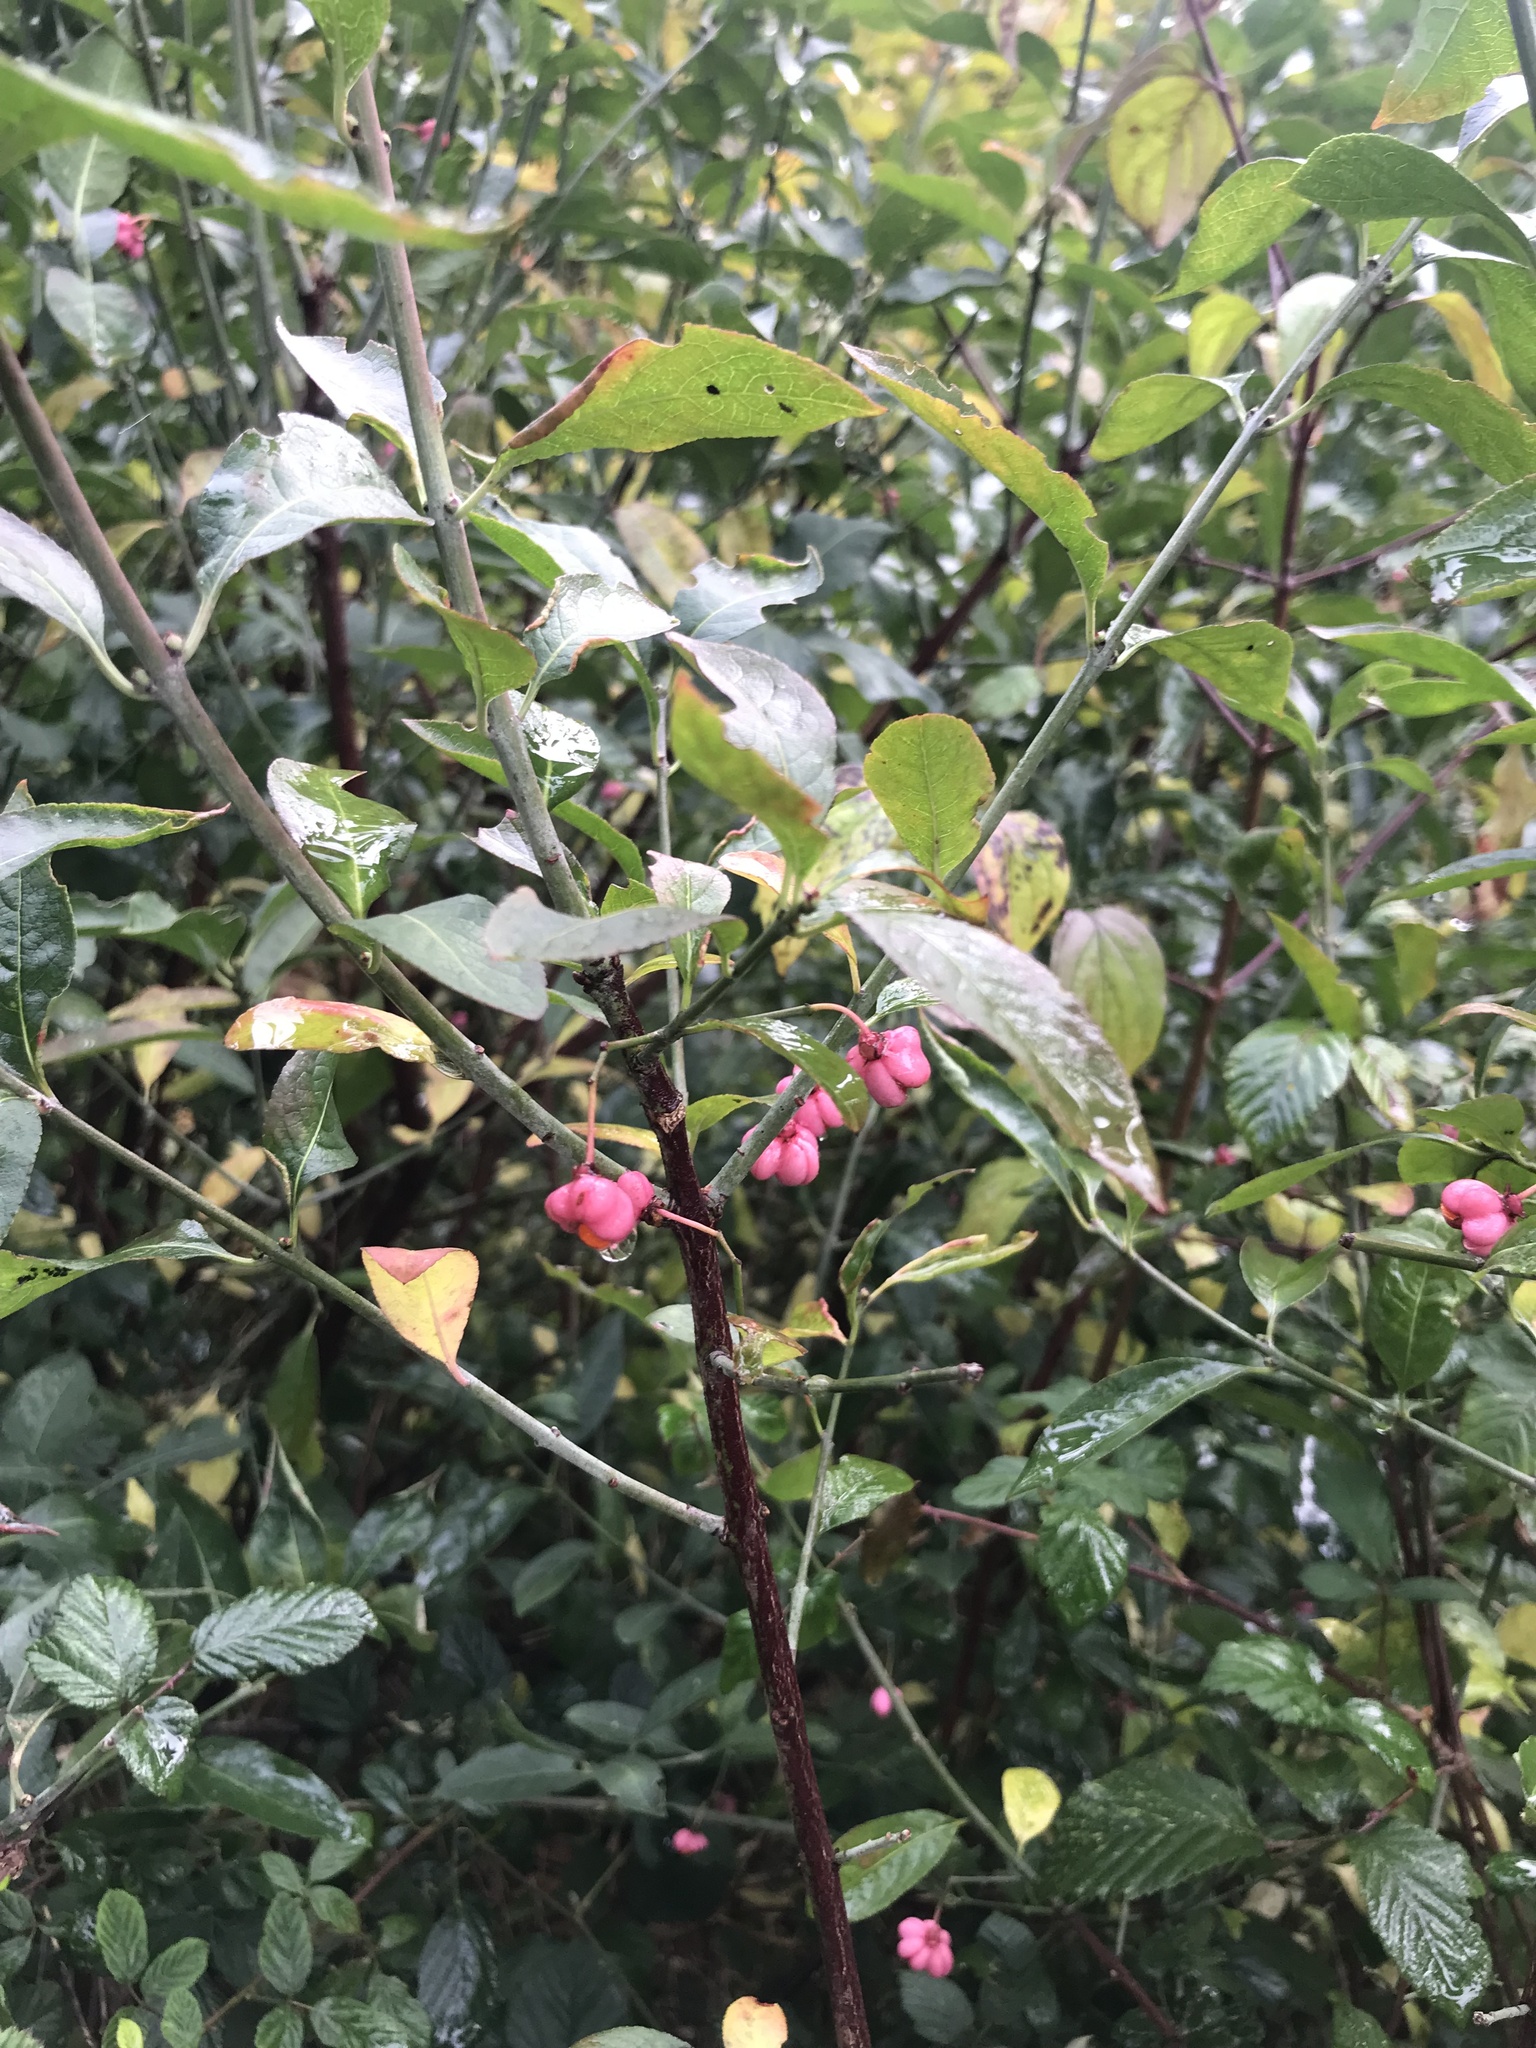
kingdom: Plantae
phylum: Tracheophyta
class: Magnoliopsida
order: Celastrales
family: Celastraceae
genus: Euonymus
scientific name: Euonymus europaeus
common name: Spindle
